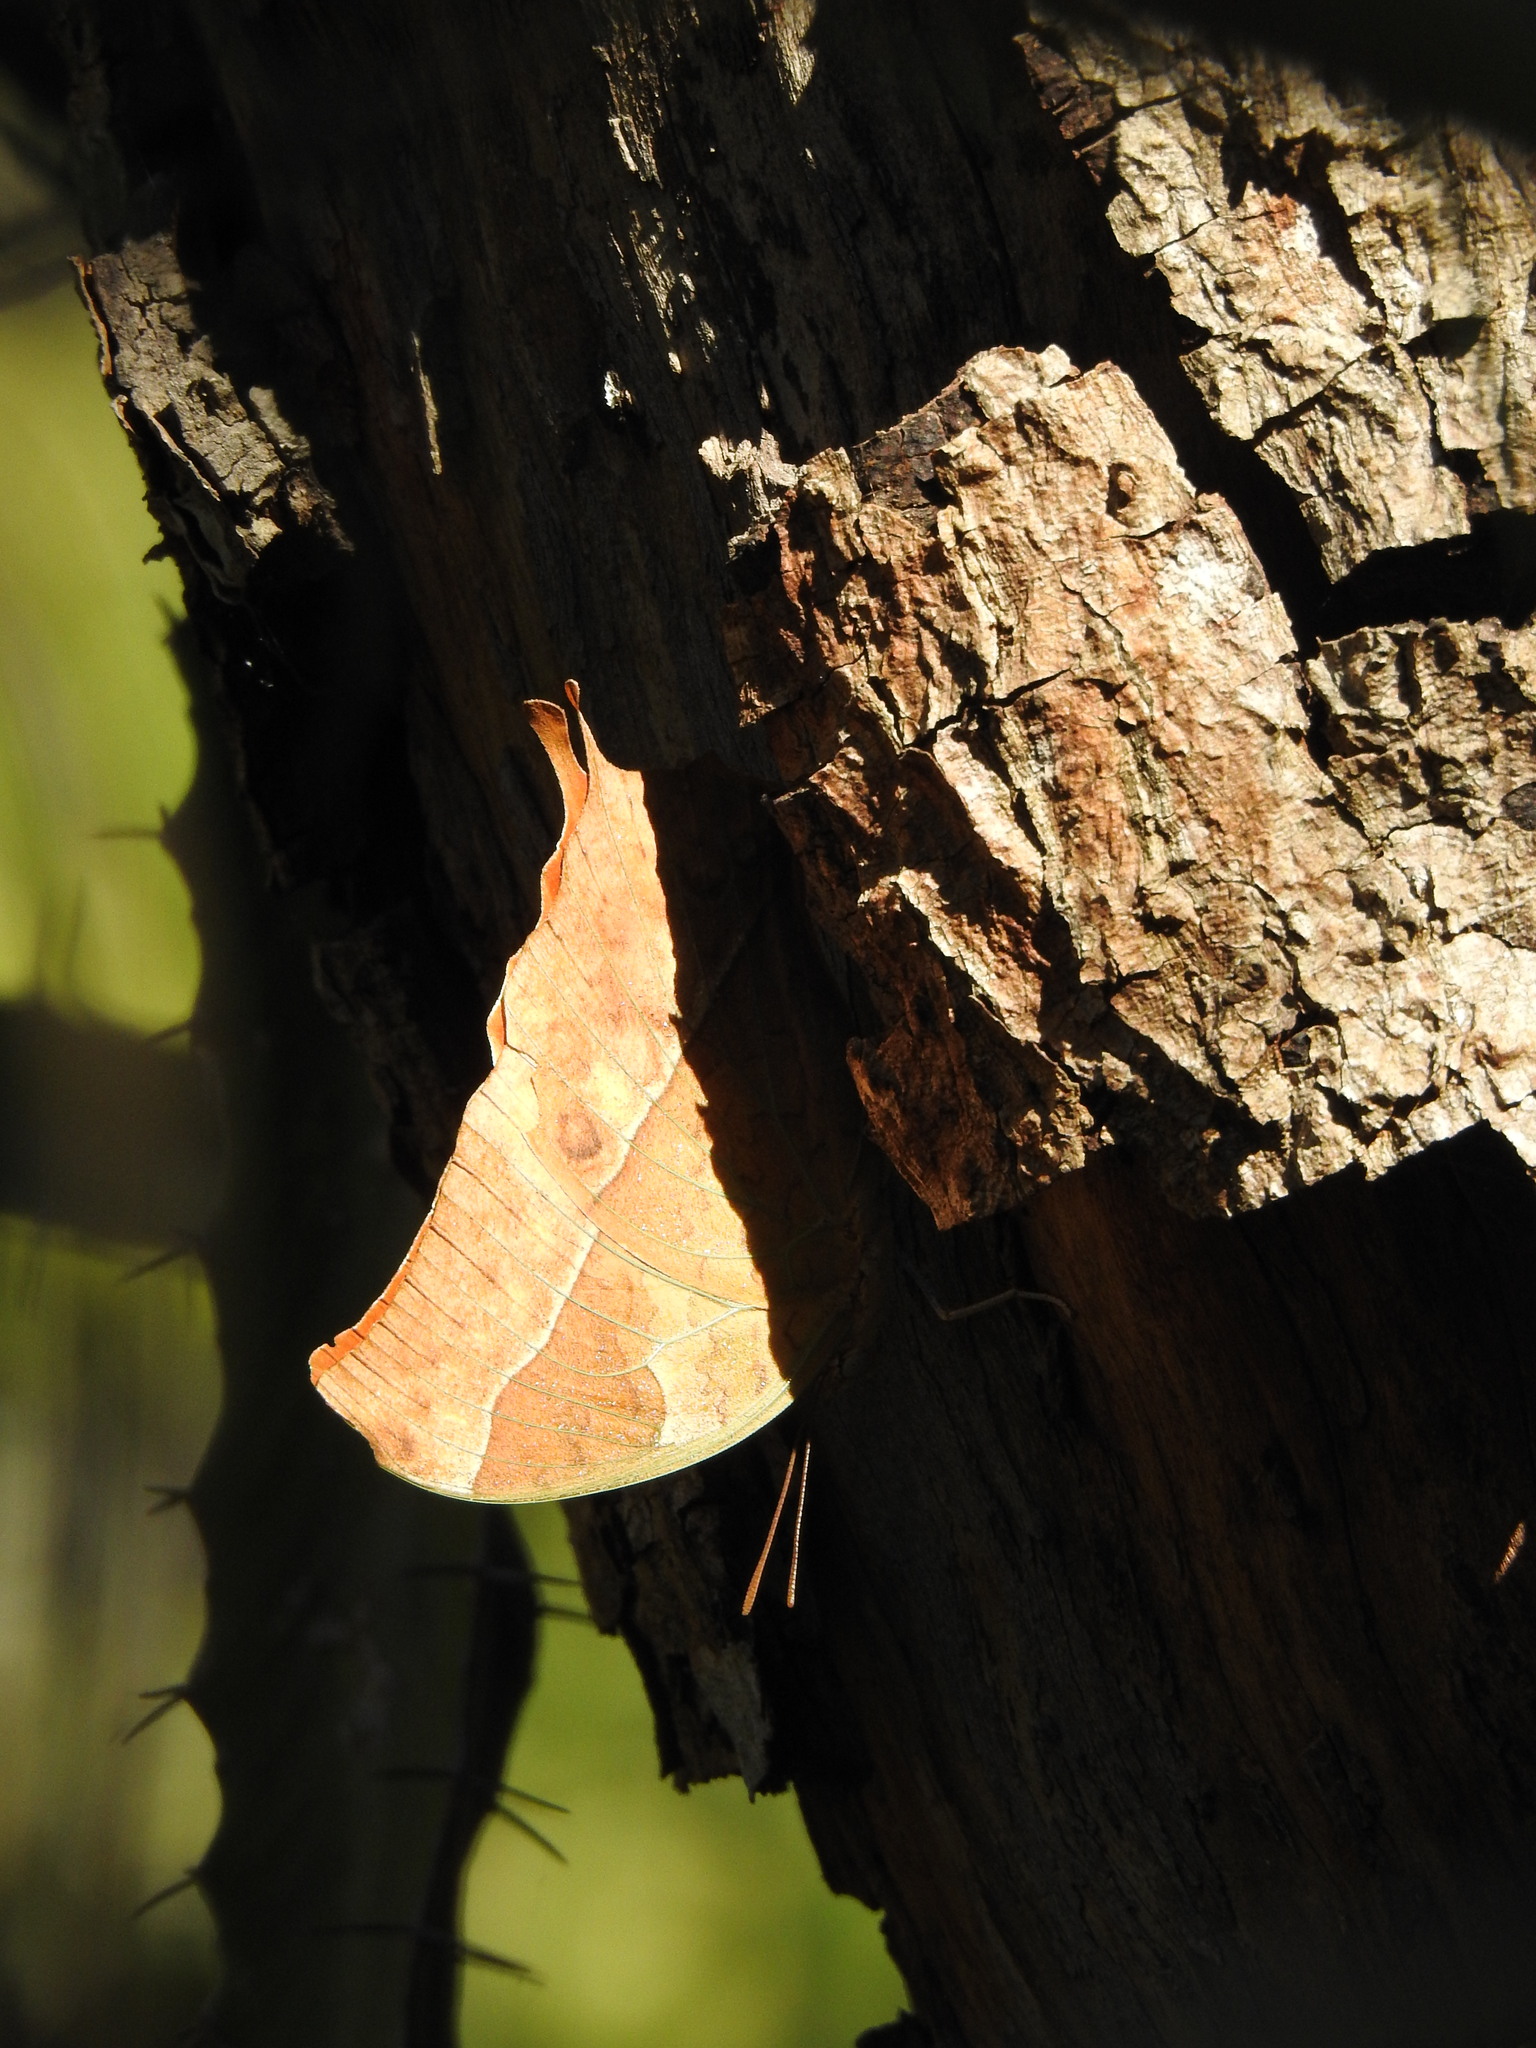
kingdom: Animalia
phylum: Arthropoda
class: Insecta
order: Lepidoptera
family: Nymphalidae
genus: Charaxes
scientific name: Charaxes varanes
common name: Common pearl charaxes
